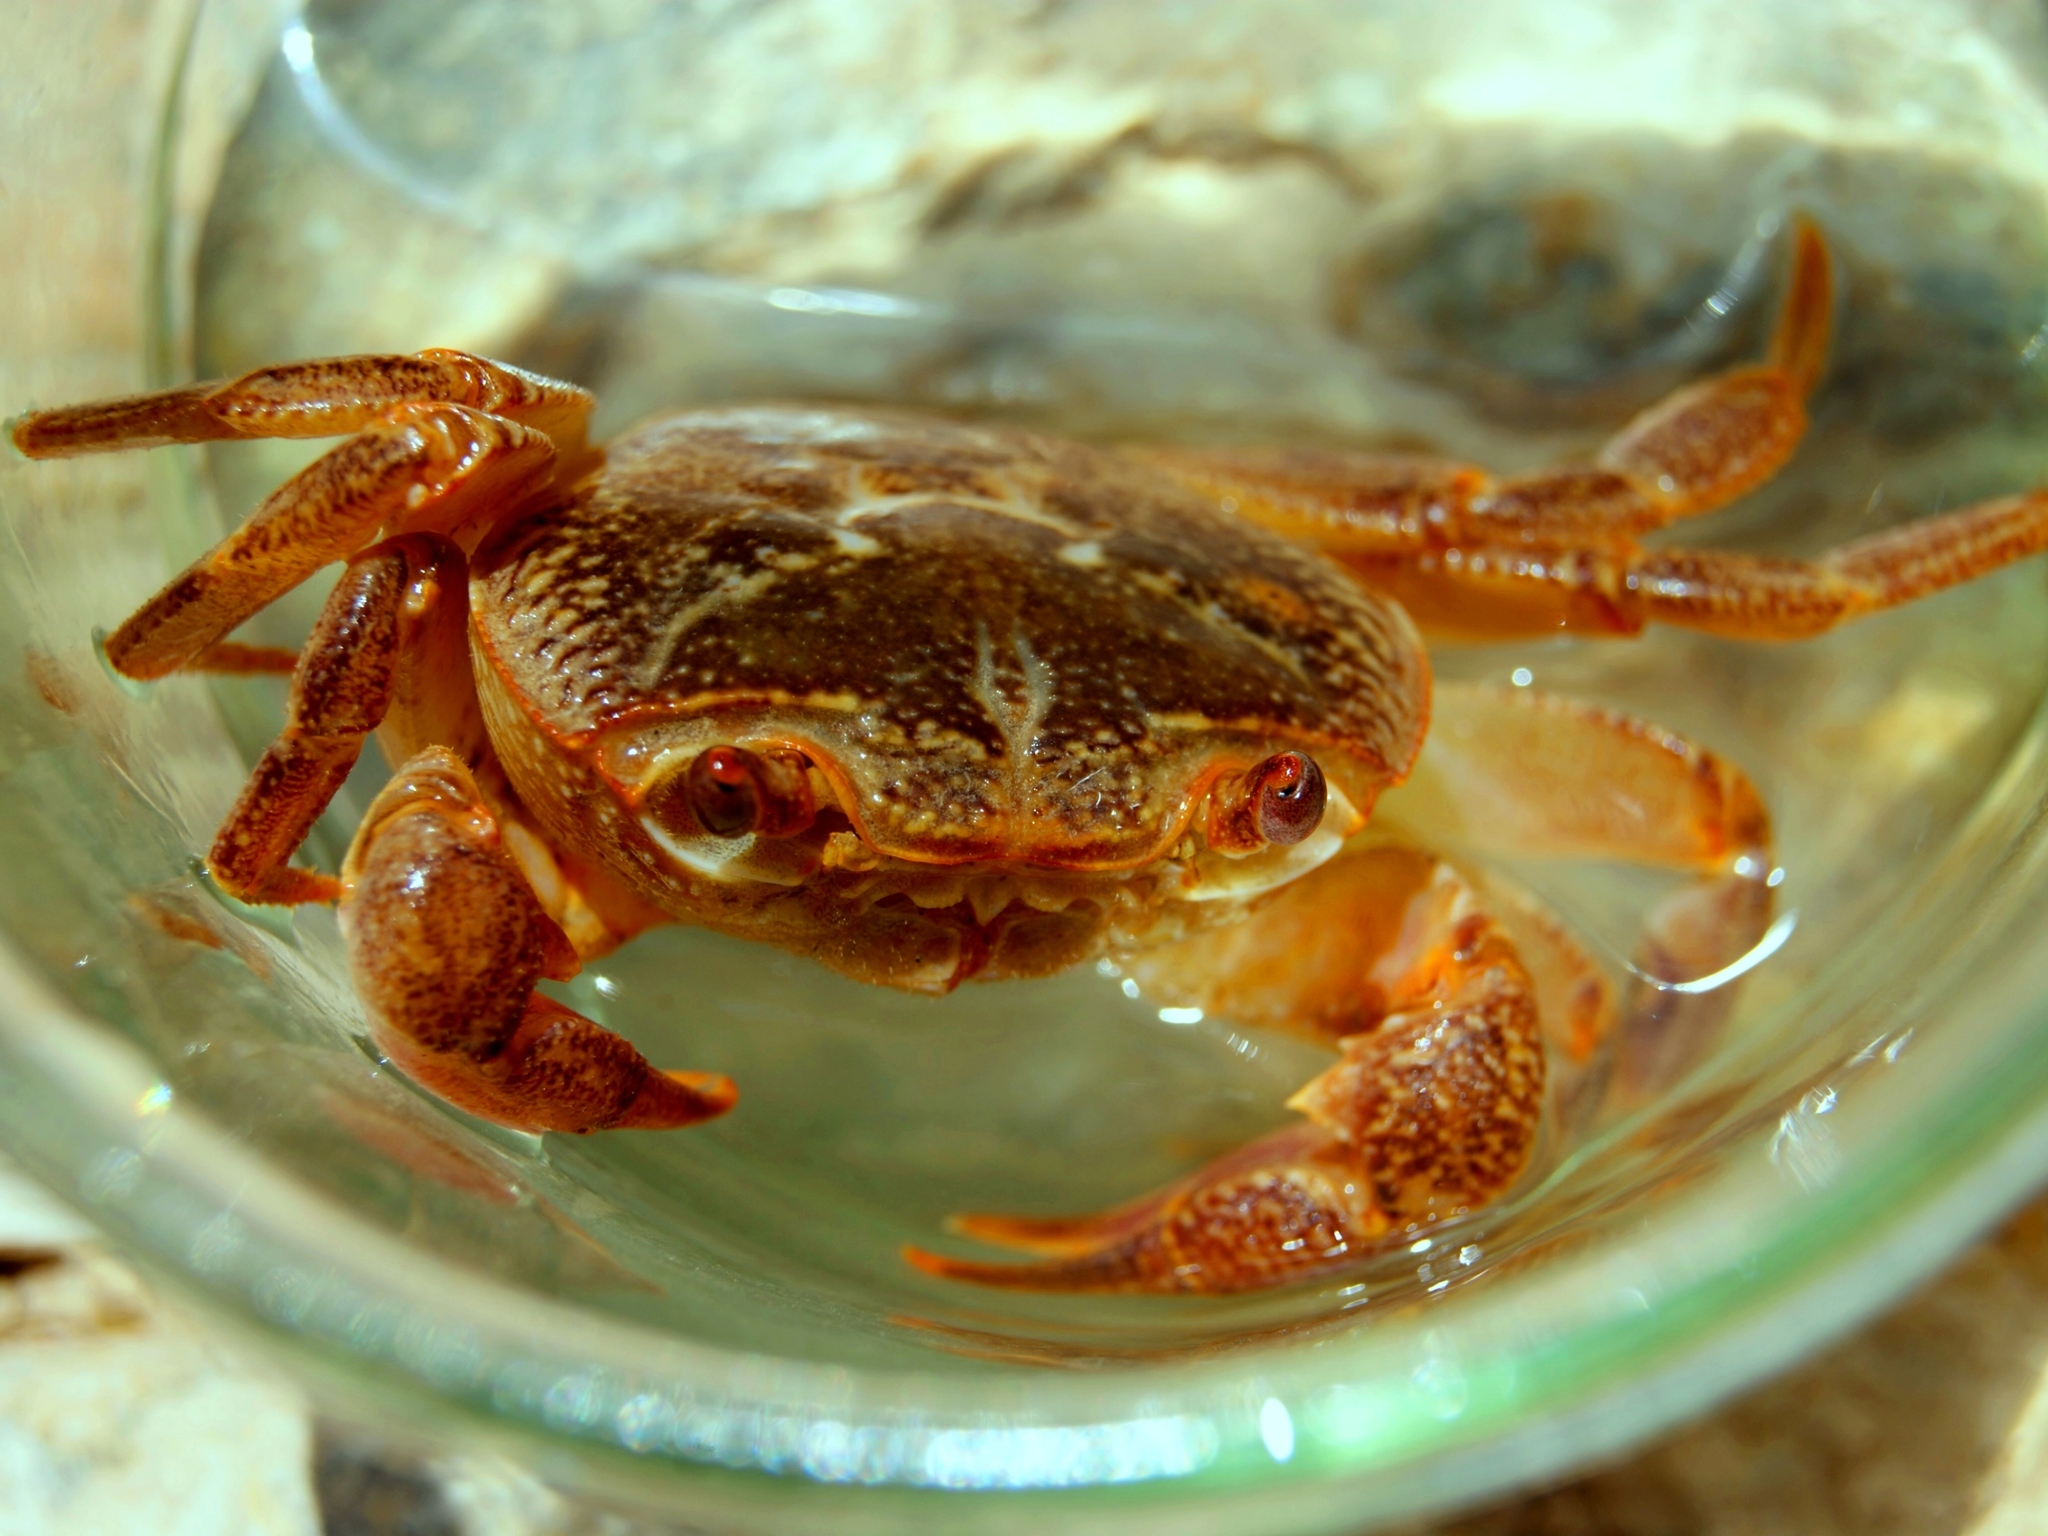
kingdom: Animalia
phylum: Arthropoda
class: Malacostraca
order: Decapoda
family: Potamidae
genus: Potamon
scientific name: Potamon potamios
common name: Aegean freshwater crab
